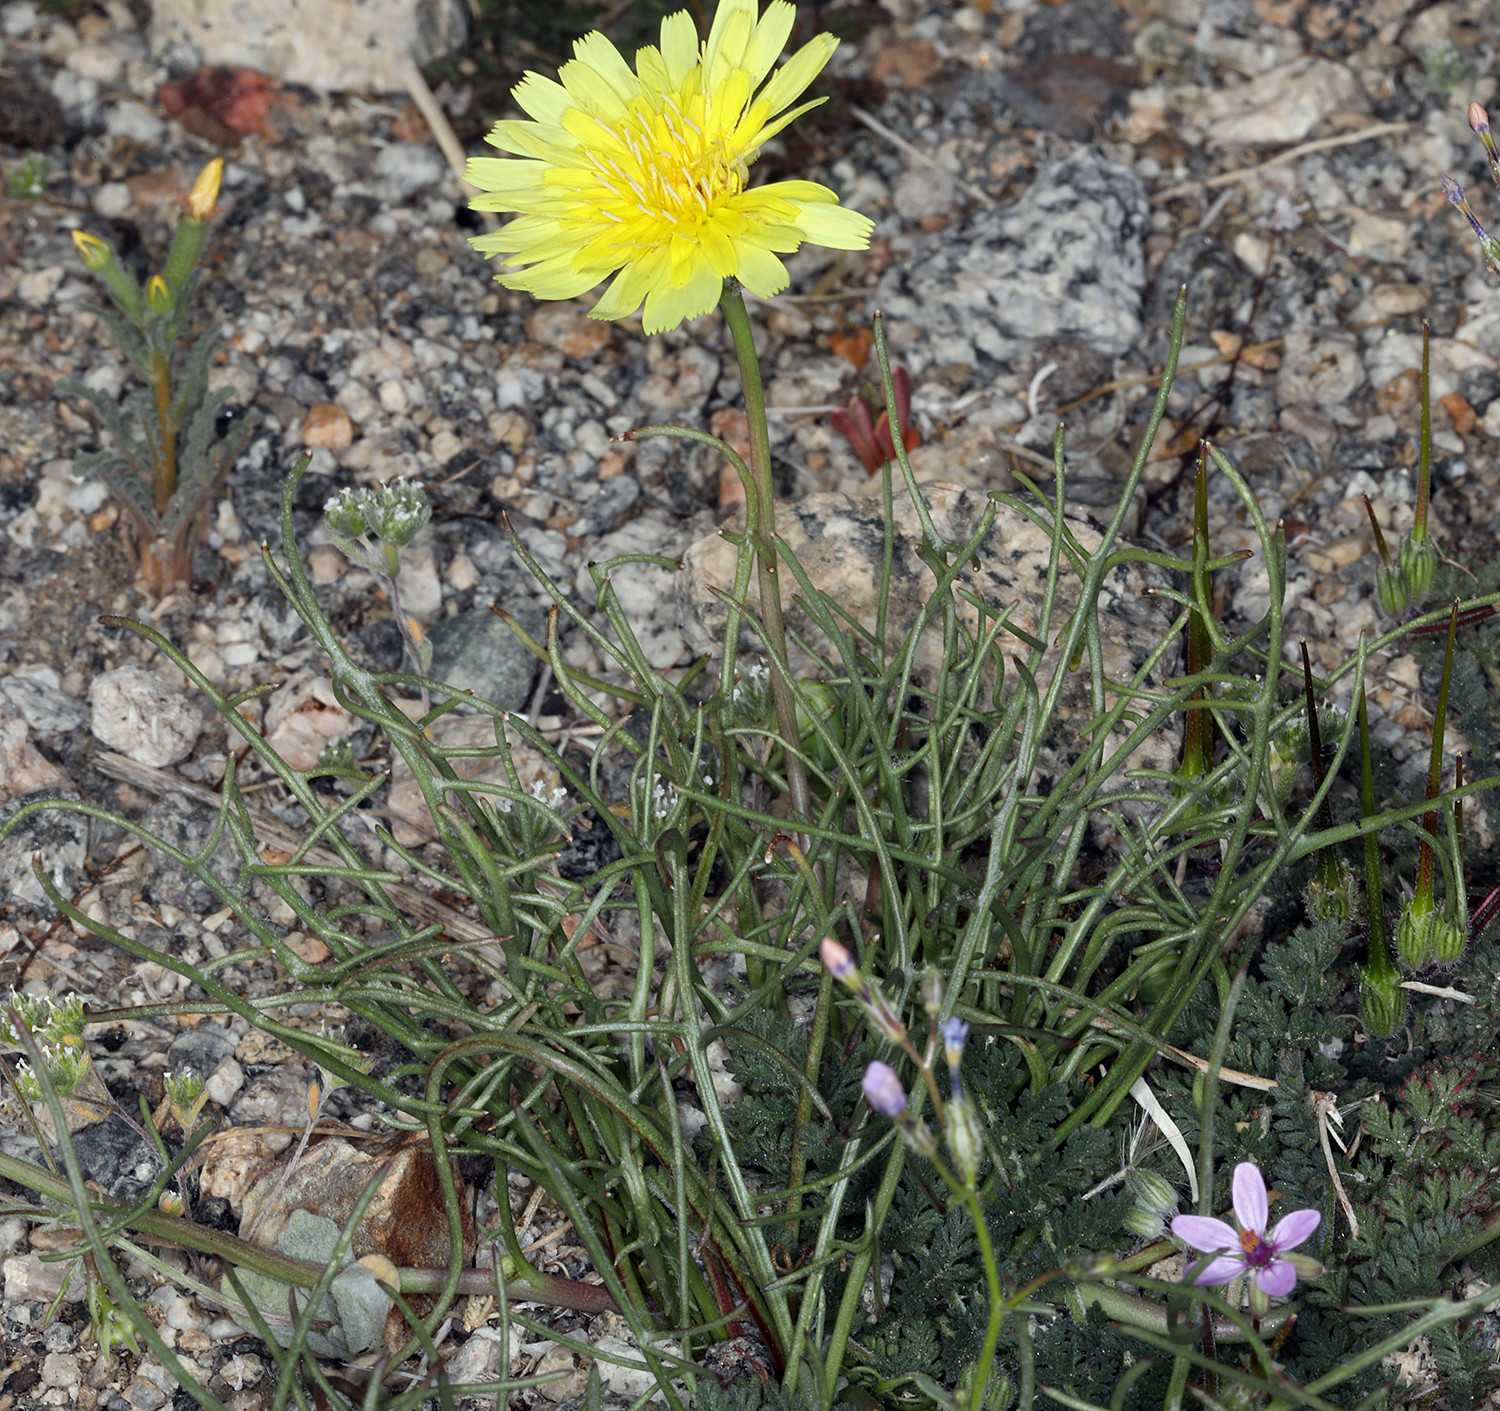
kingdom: Plantae
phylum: Tracheophyta
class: Magnoliopsida
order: Asterales
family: Asteraceae
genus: Malacothrix
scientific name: Malacothrix glabrata
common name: Smooth desert-dandelion
